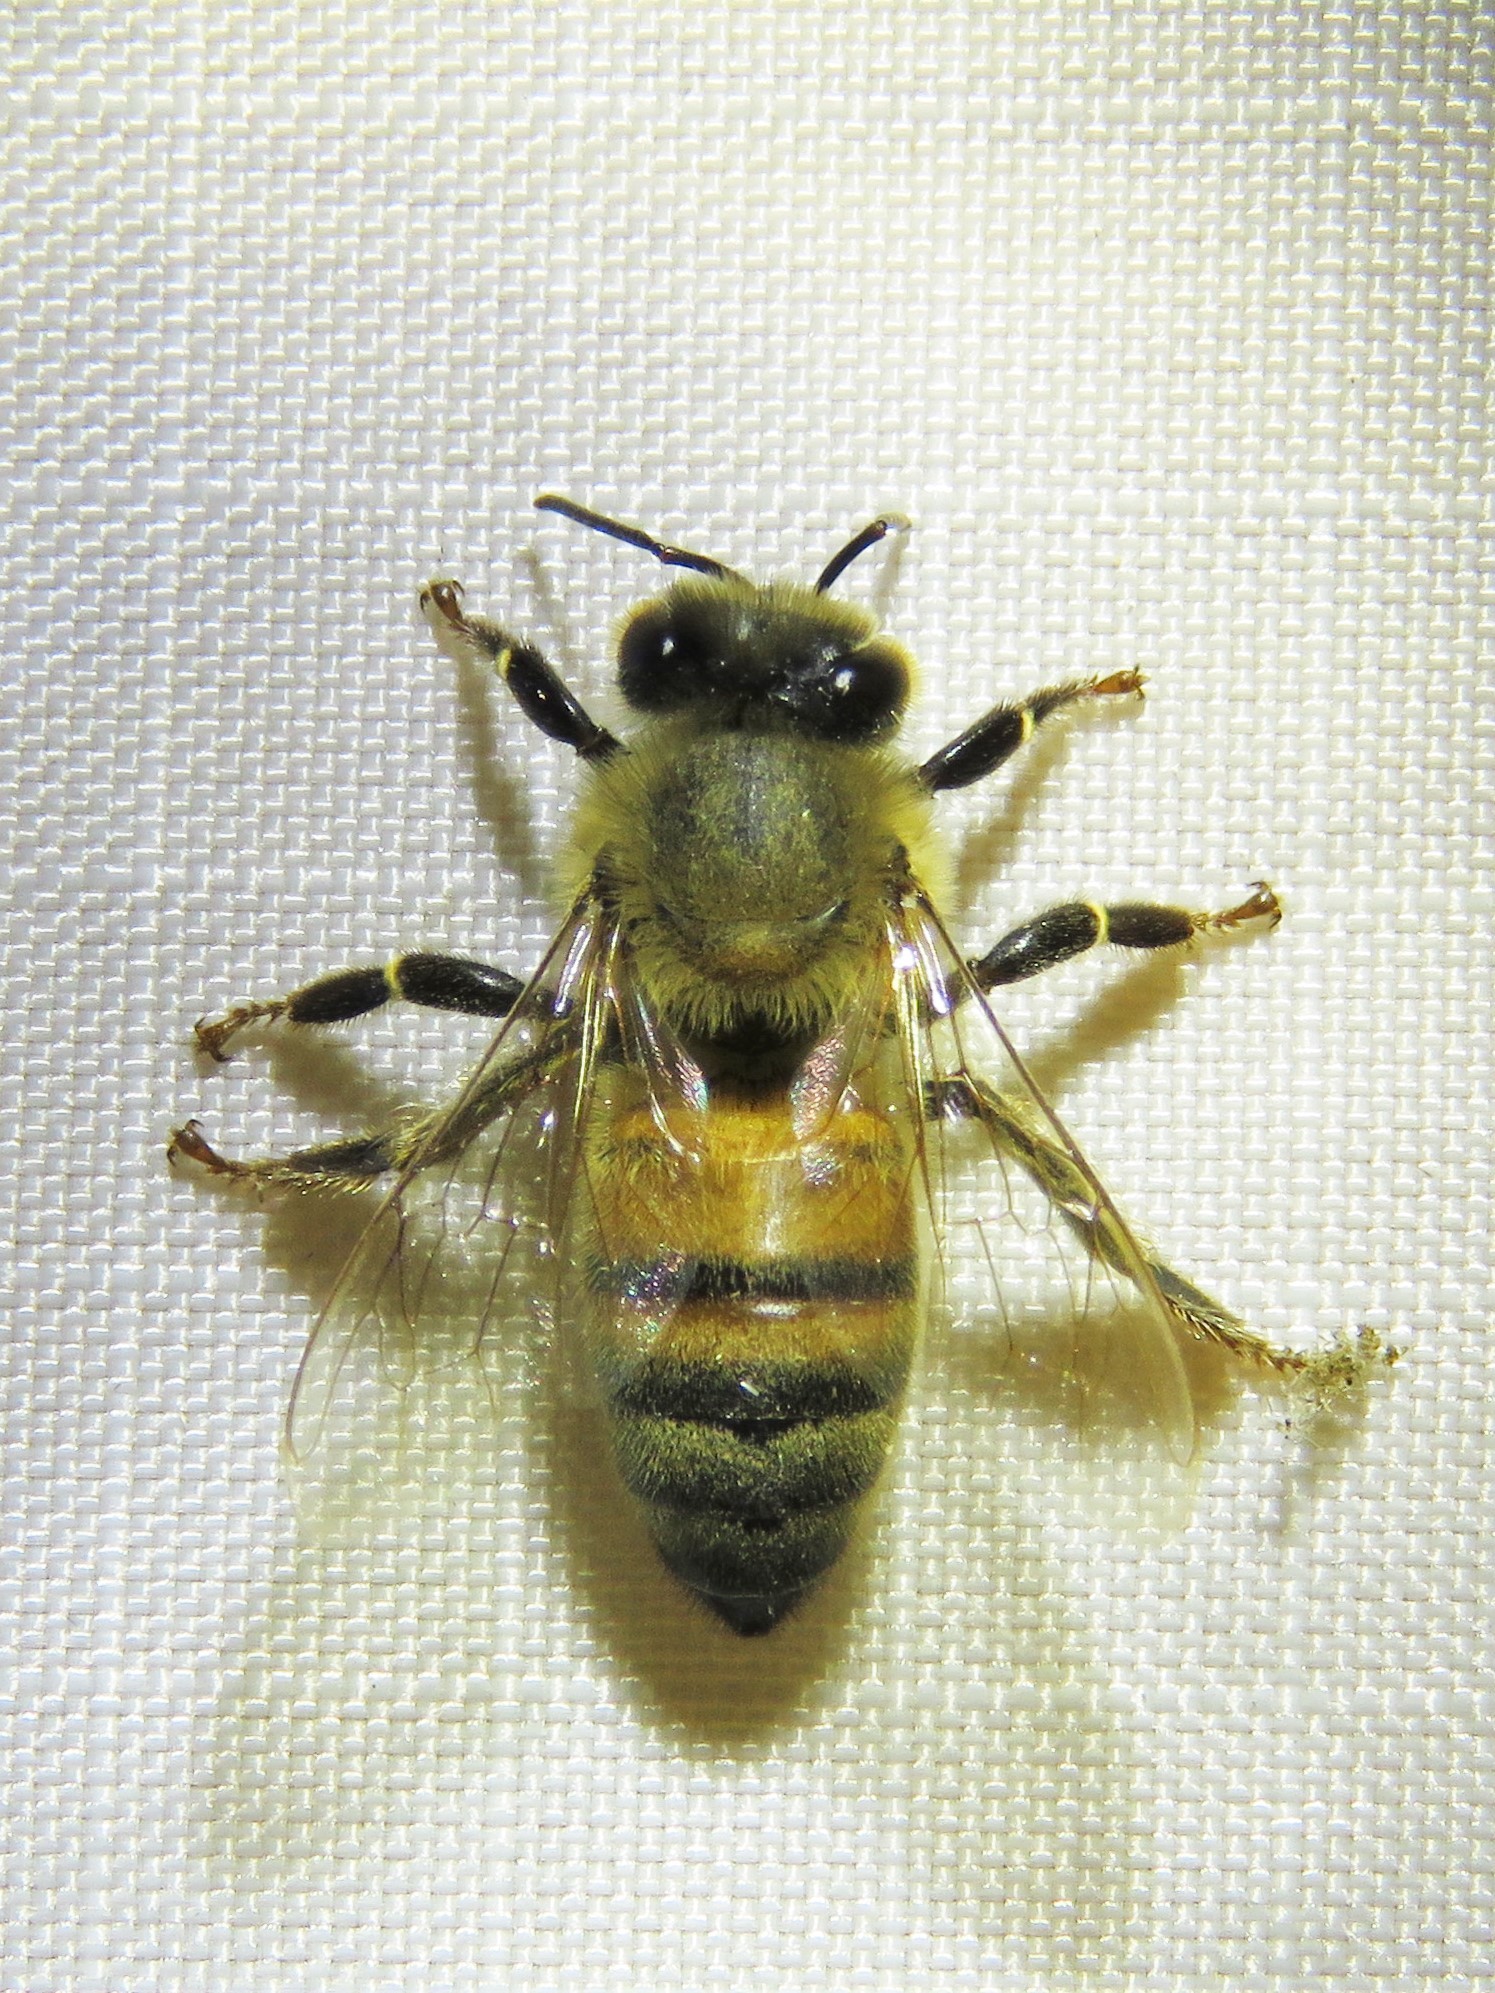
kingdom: Animalia
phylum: Arthropoda
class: Insecta
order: Hymenoptera
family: Apidae
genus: Apis
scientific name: Apis mellifera
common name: Honey bee
